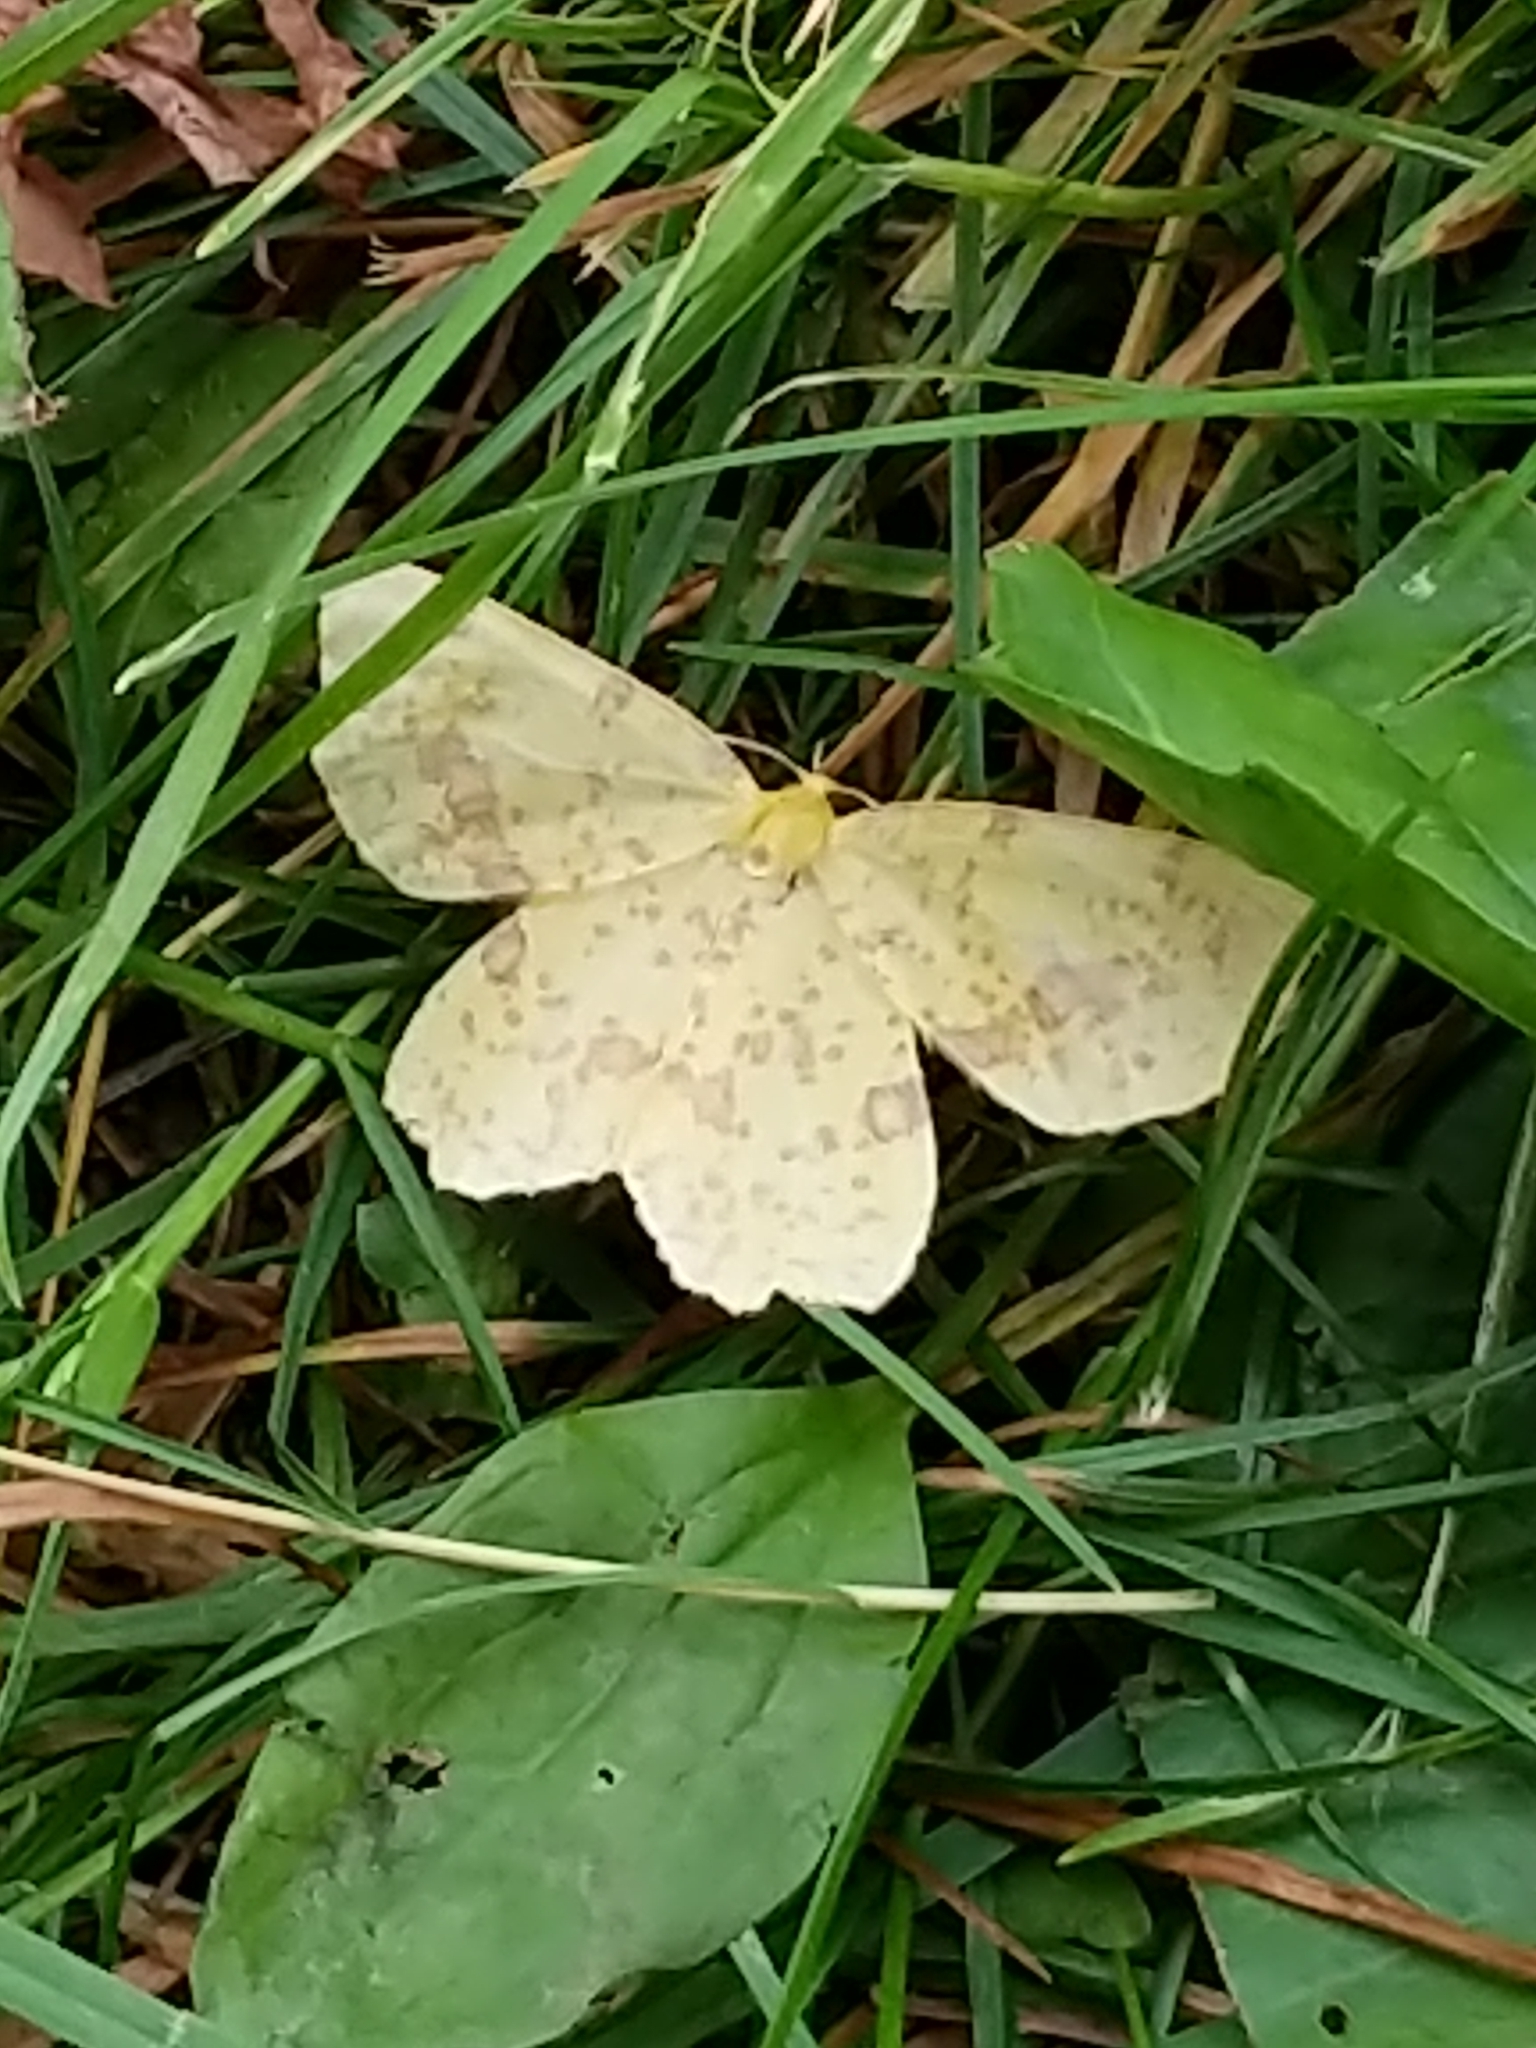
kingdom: Animalia
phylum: Arthropoda
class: Insecta
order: Lepidoptera
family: Geometridae
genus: Xanthotype
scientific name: Xanthotype
